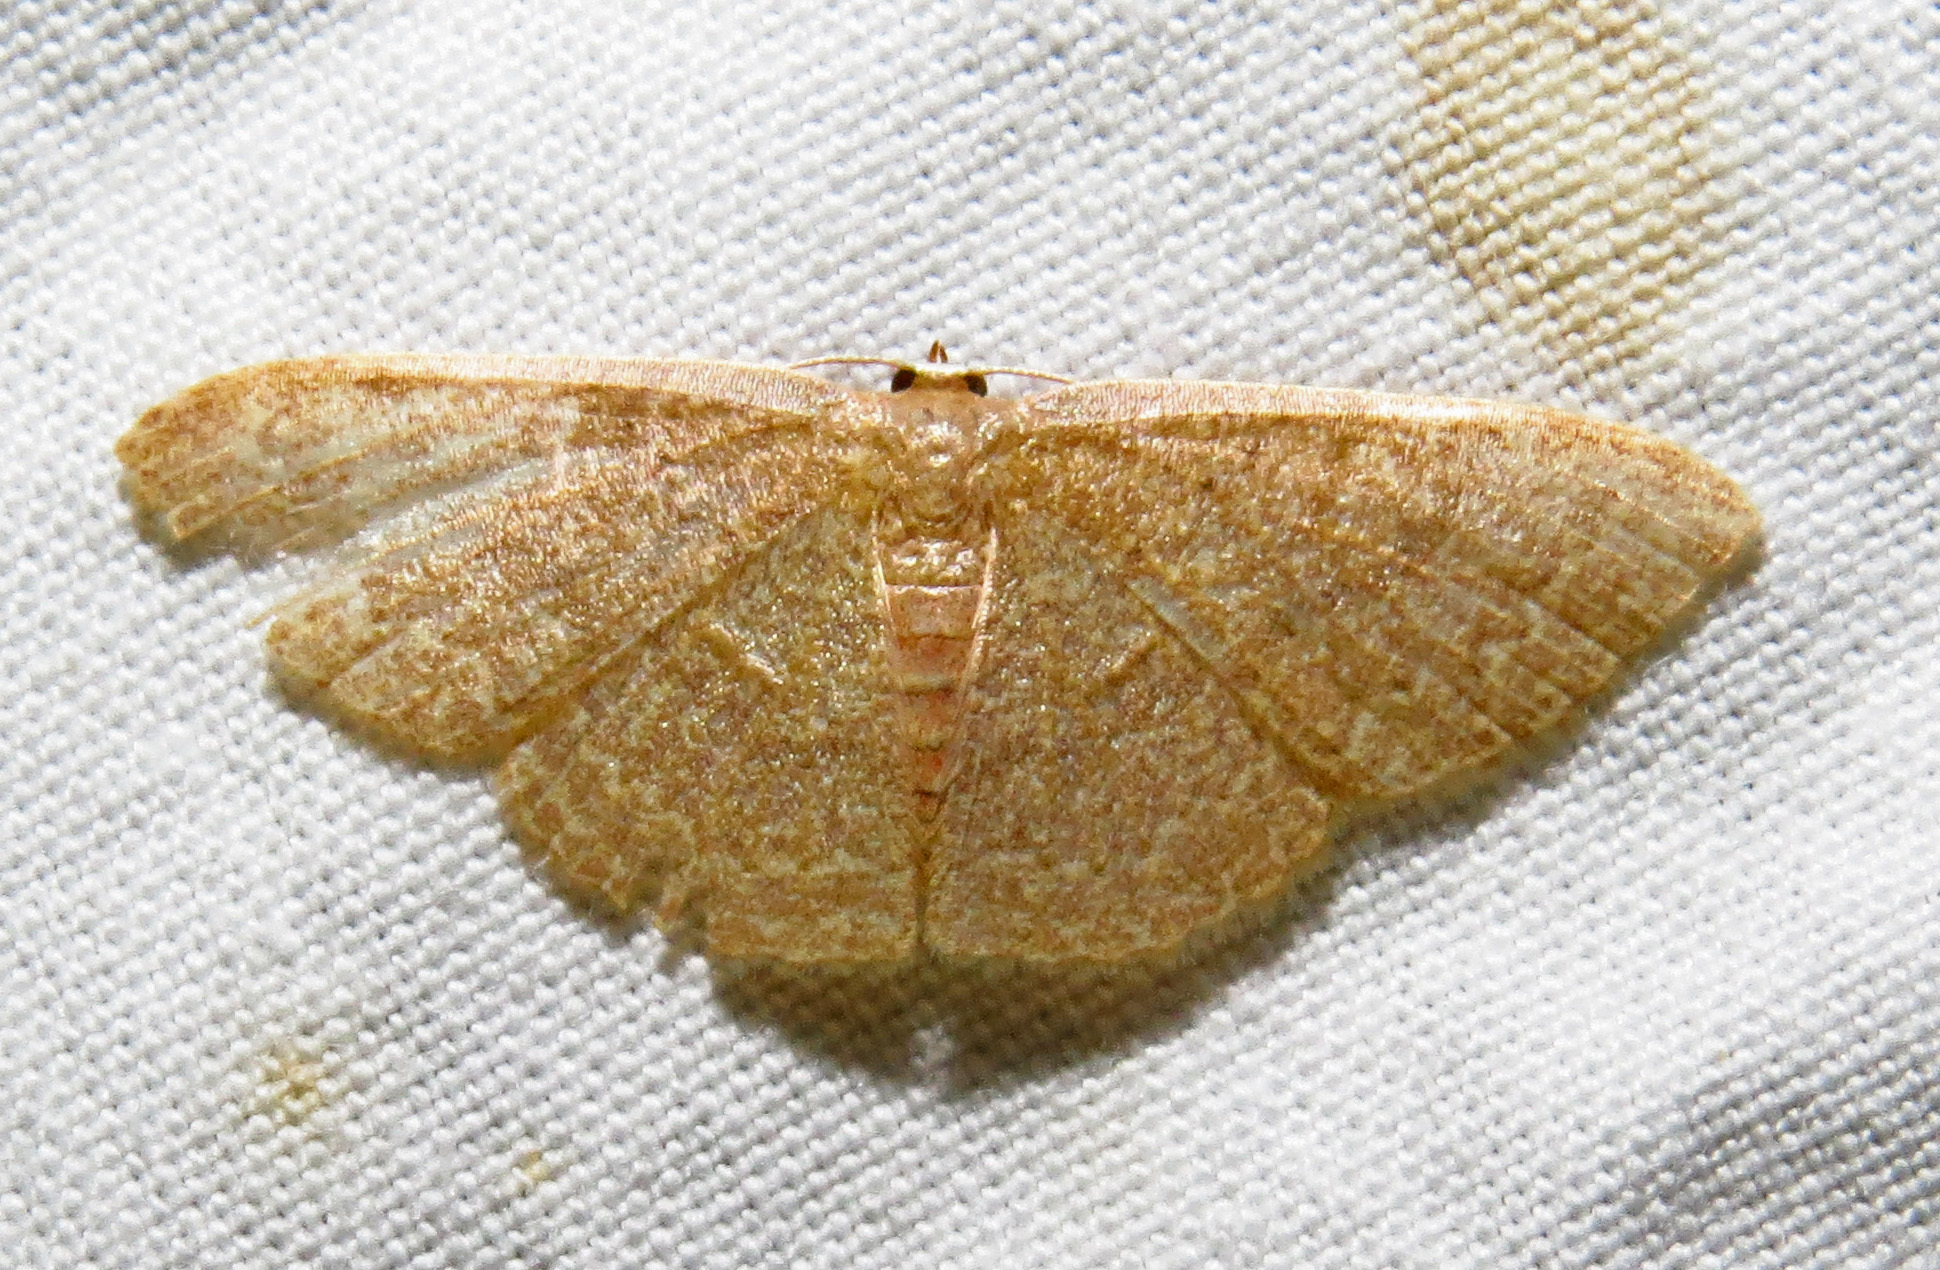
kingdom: Animalia
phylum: Arthropoda
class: Insecta
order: Lepidoptera
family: Geometridae
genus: Pleuroprucha
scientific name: Pleuroprucha insulsaria
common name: Common tan wave
